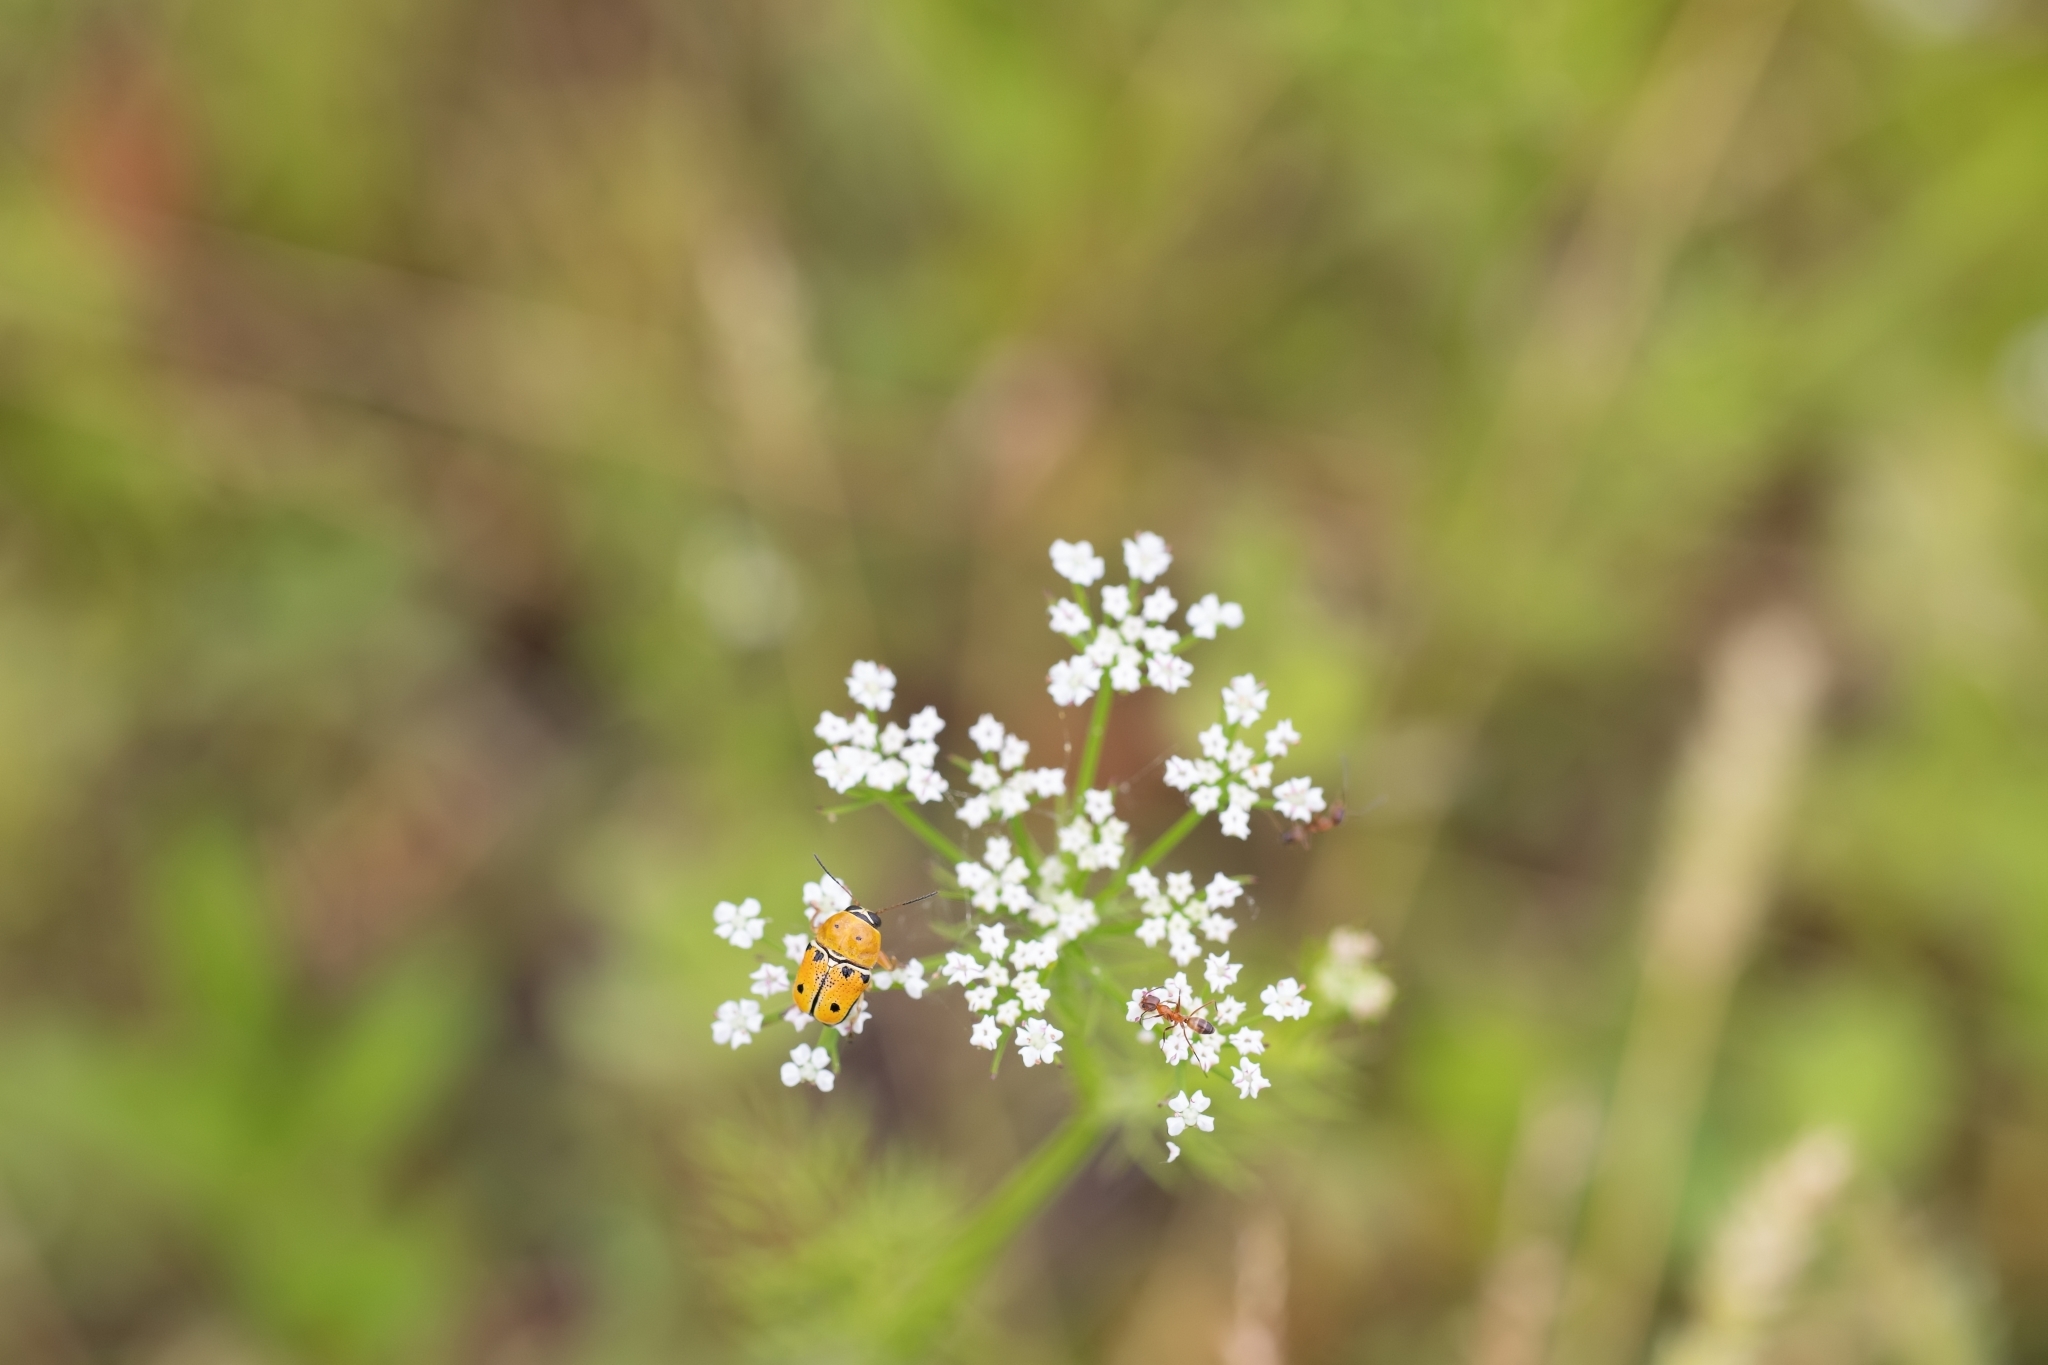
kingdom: Animalia
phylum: Arthropoda
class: Insecta
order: Coleoptera
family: Chrysomelidae
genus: Griburius
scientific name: Griburius larvatus
